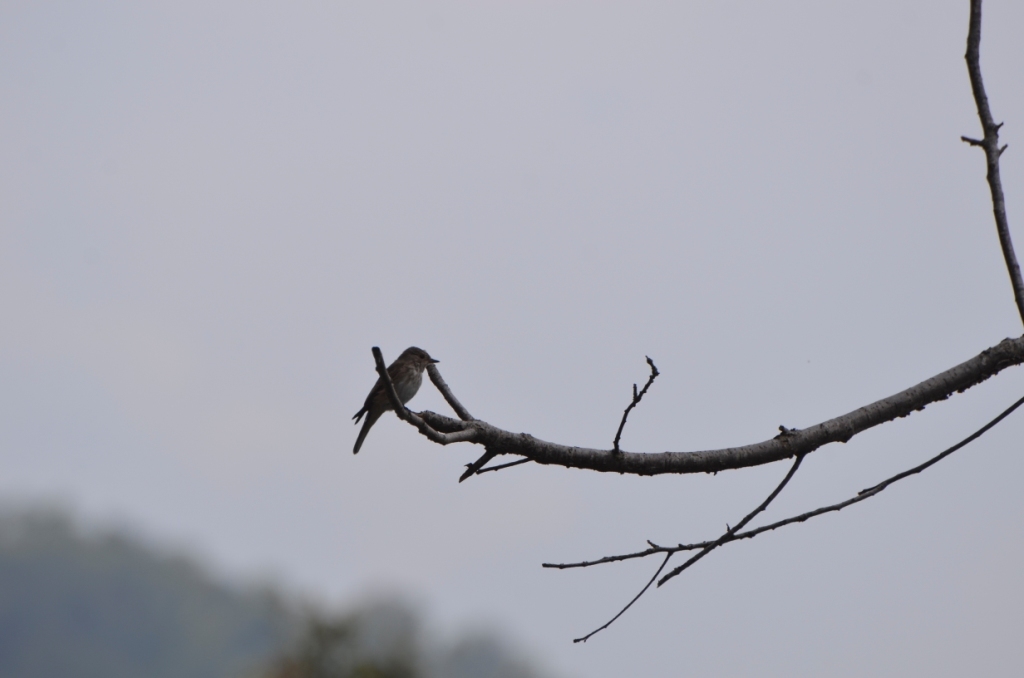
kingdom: Animalia
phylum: Chordata
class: Aves
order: Passeriformes
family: Muscicapidae
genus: Muscicapa
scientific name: Muscicapa striata
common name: Spotted flycatcher
